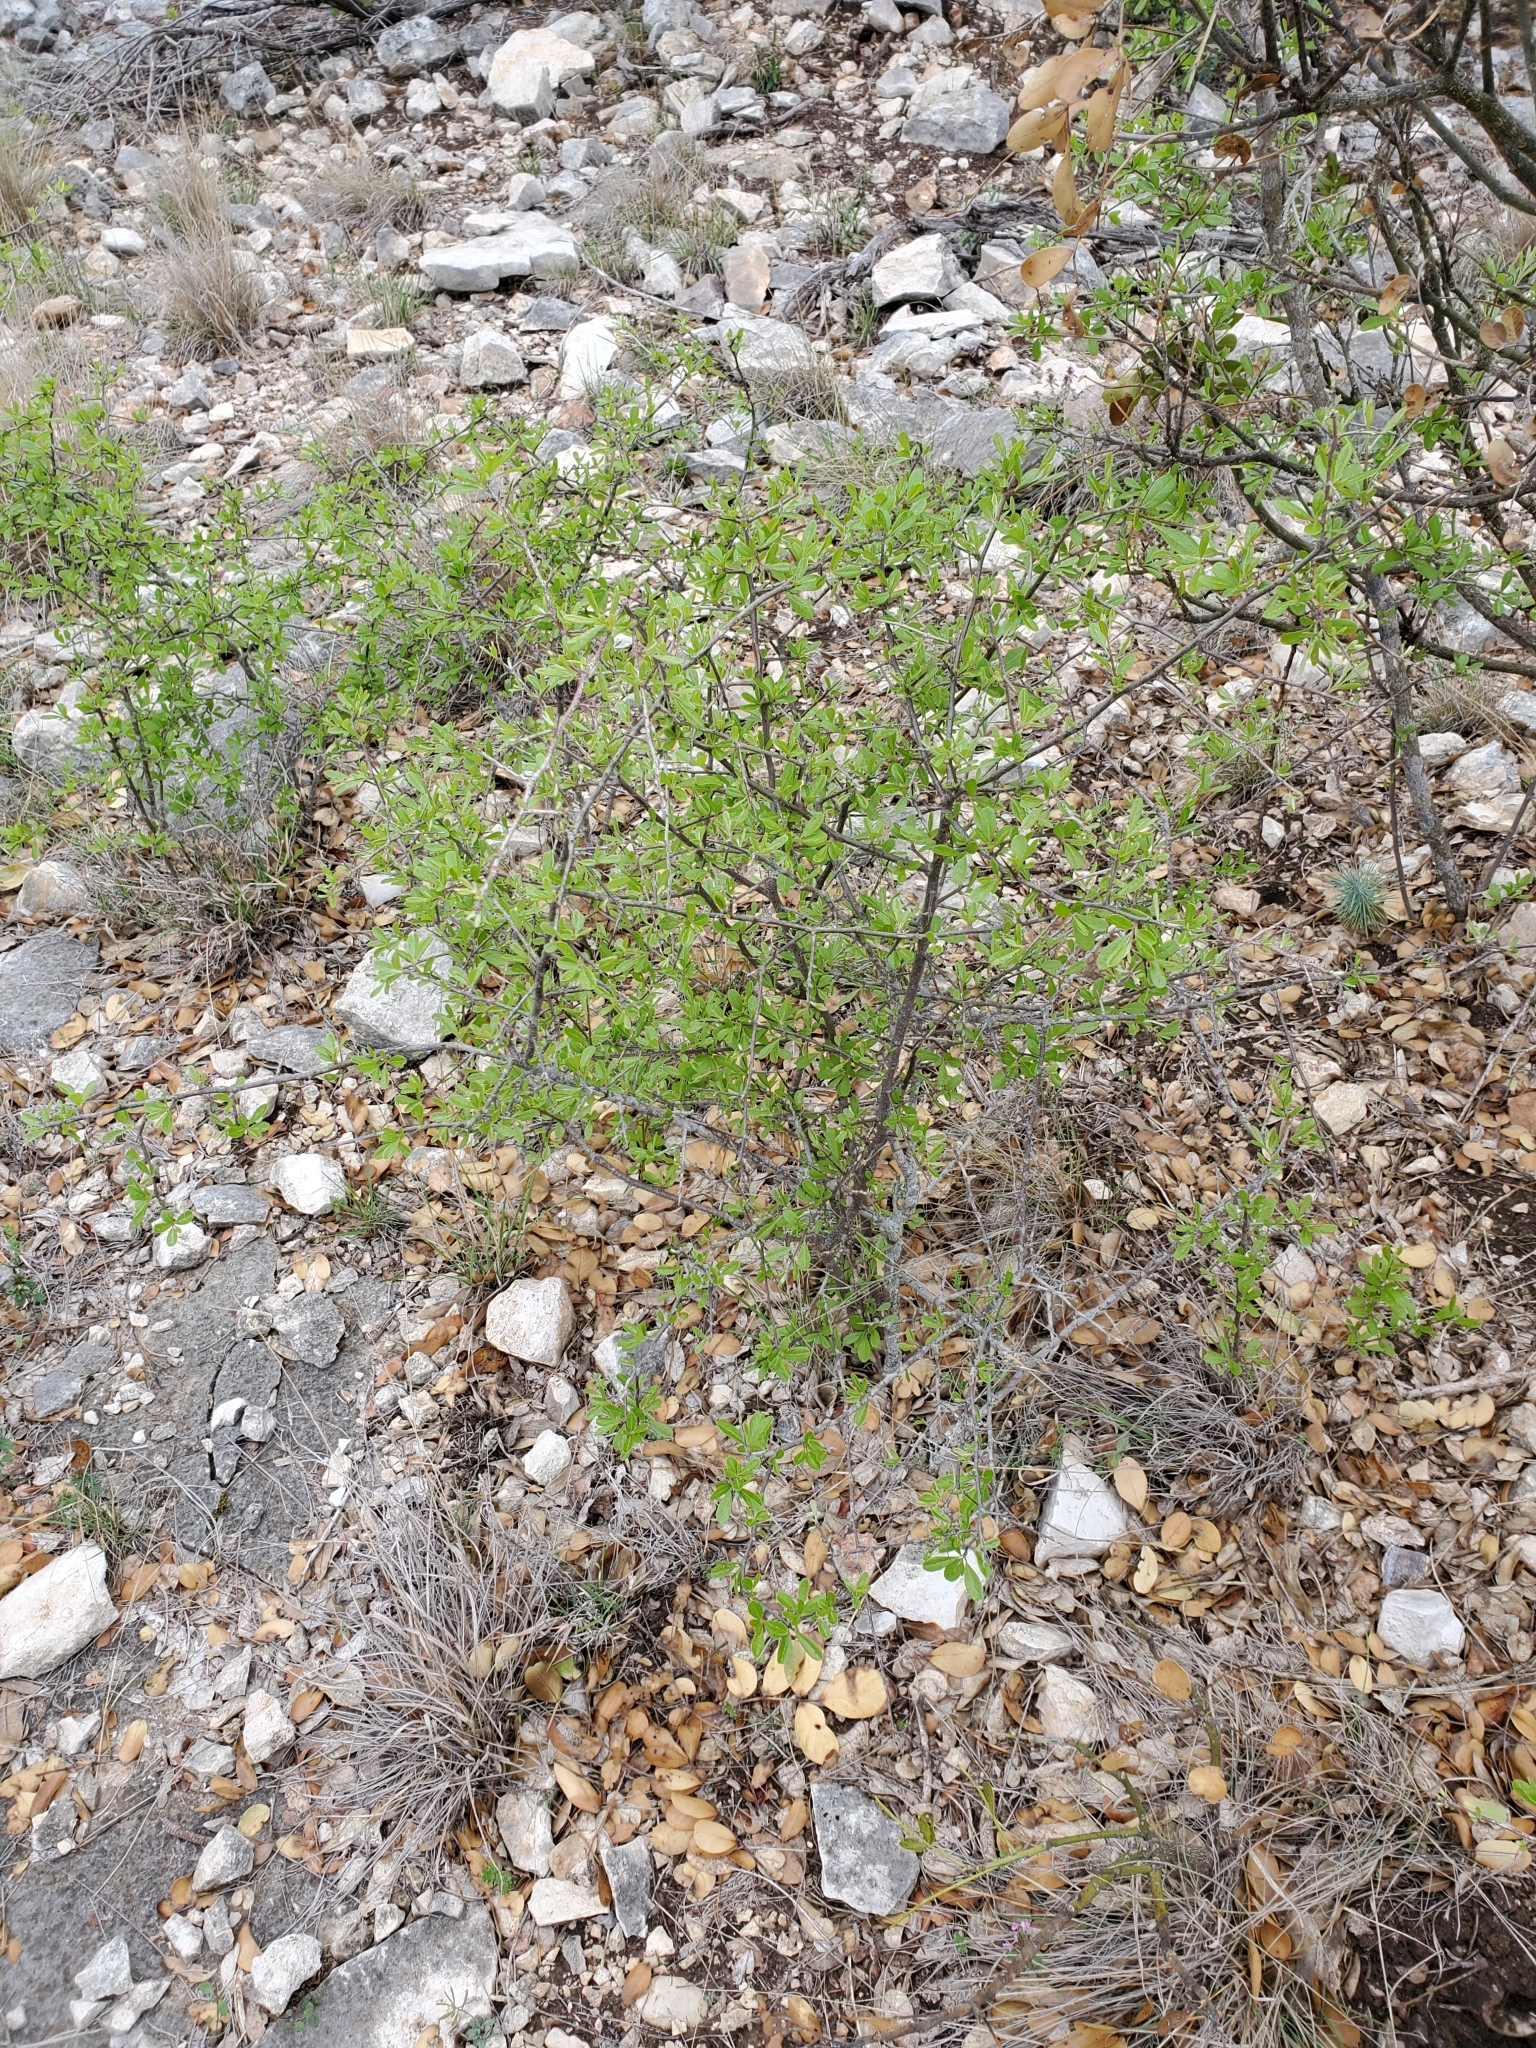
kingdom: Plantae
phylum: Tracheophyta
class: Magnoliopsida
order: Ericales
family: Sapotaceae
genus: Sideroxylon
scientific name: Sideroxylon lanuginosum
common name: Chittamwood
